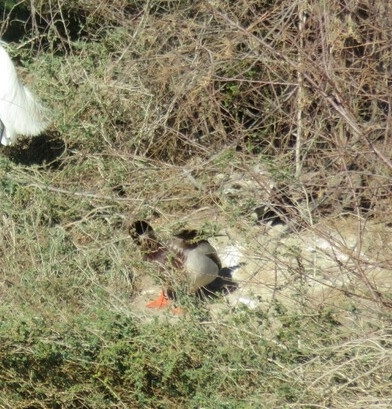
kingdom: Animalia
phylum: Chordata
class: Aves
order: Anseriformes
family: Anatidae
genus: Anas
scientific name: Anas platyrhynchos
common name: Mallard
